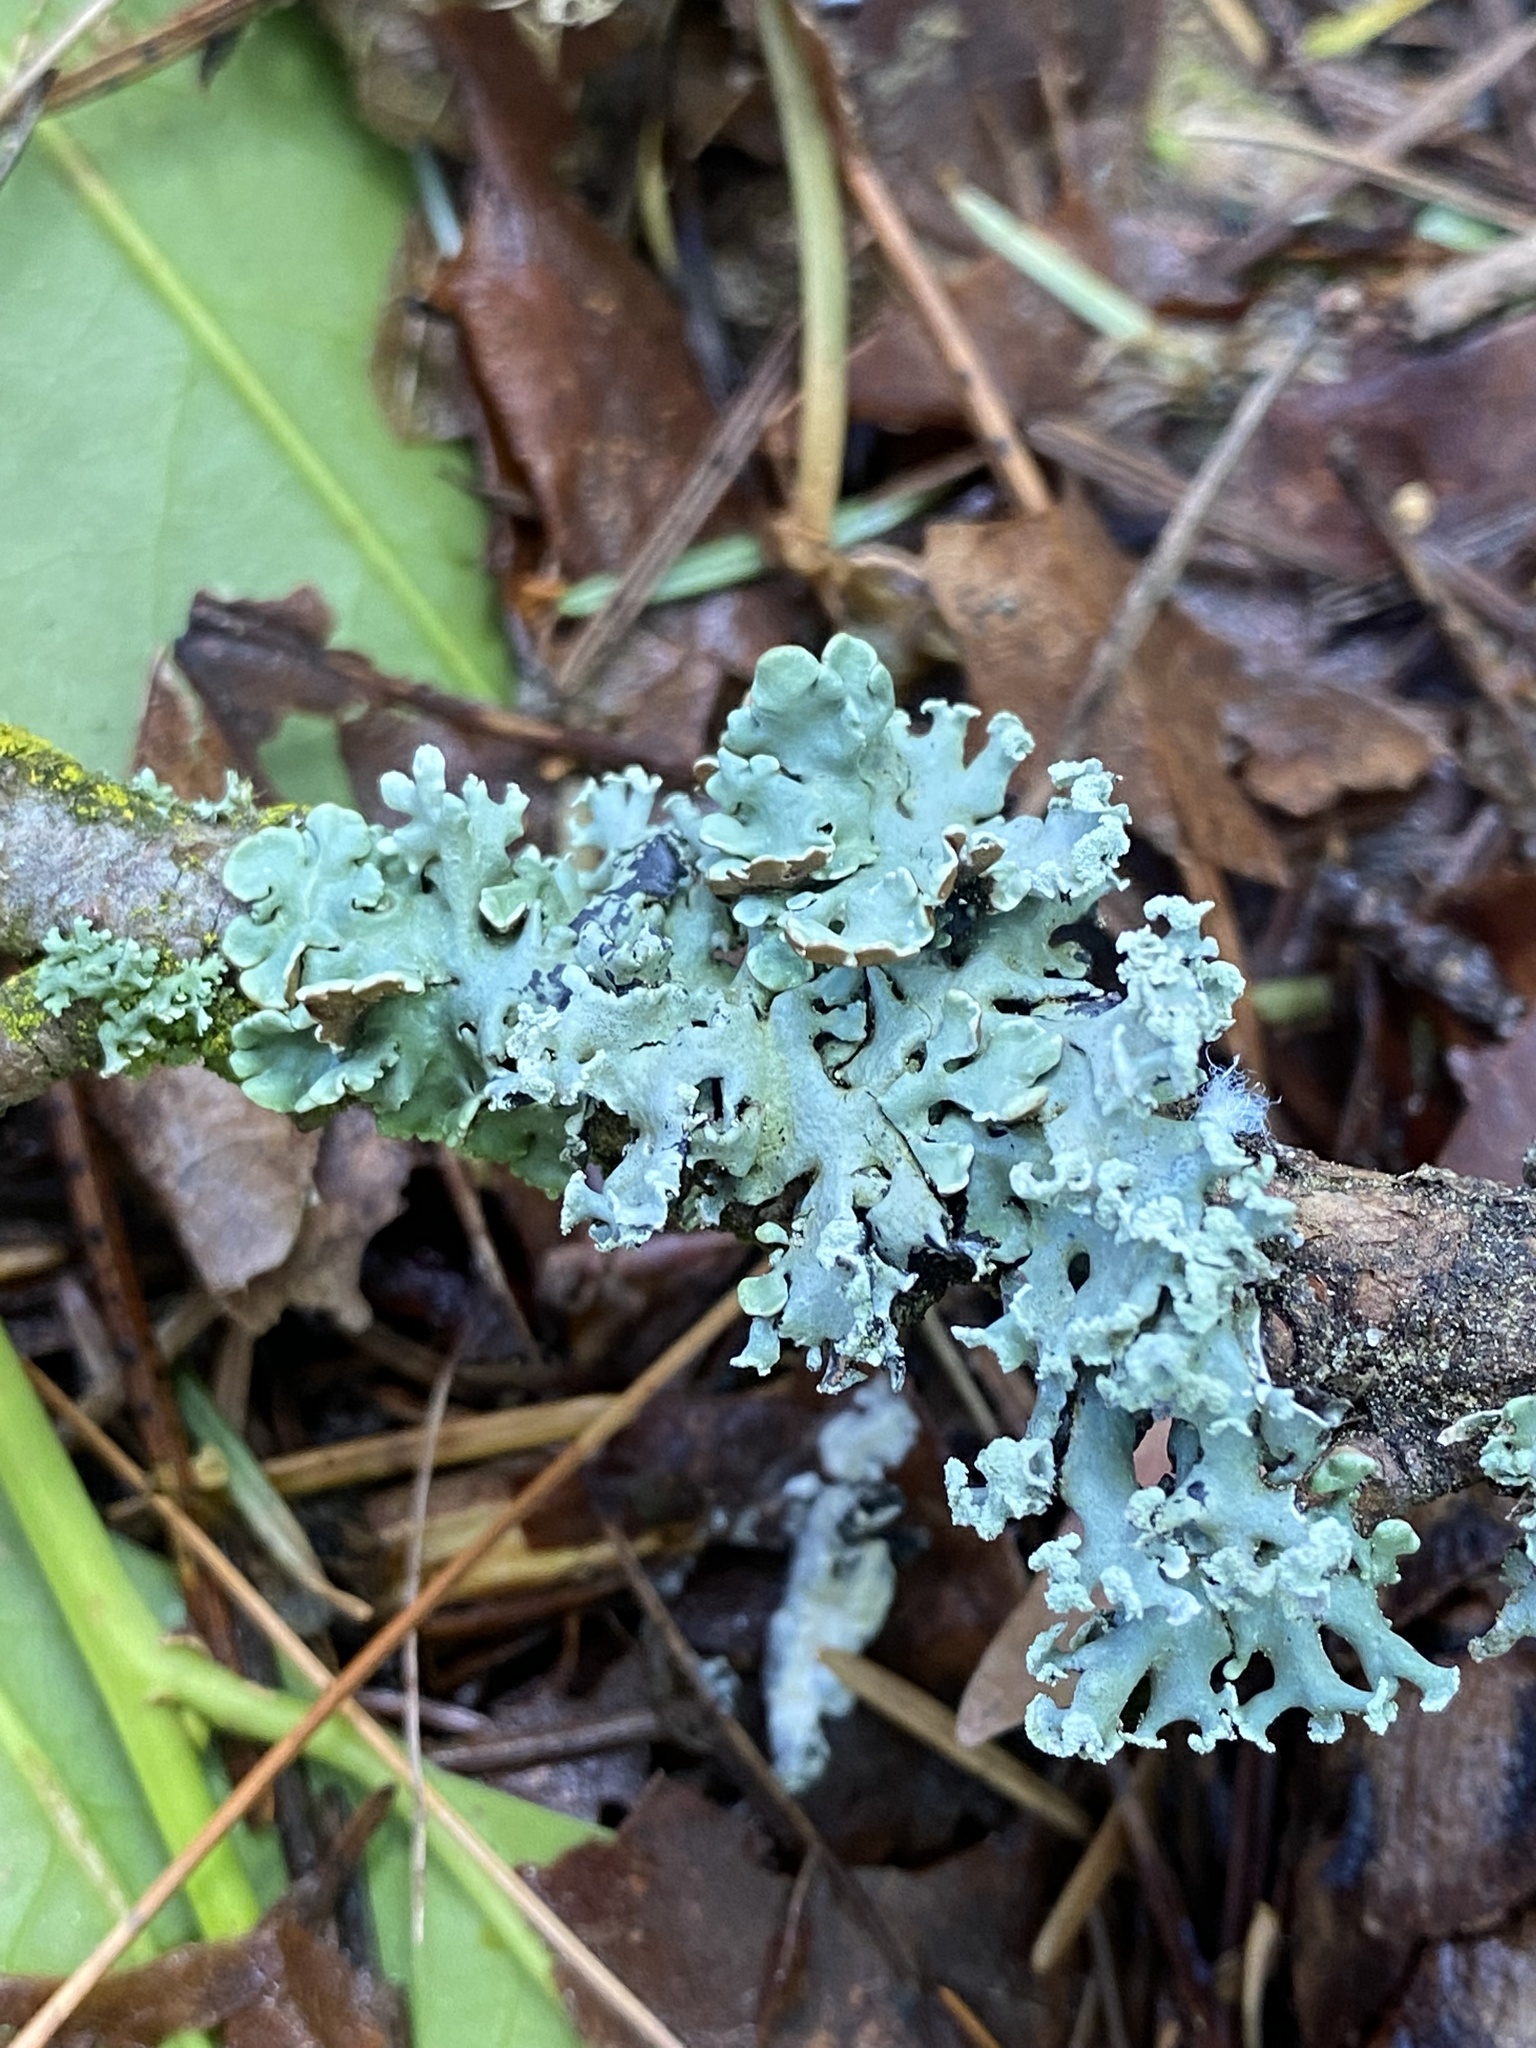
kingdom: Fungi
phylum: Ascomycota
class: Lecanoromycetes
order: Lecanorales
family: Parmeliaceae
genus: Hypogymnia
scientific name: Hypogymnia physodes
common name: Dark crottle
